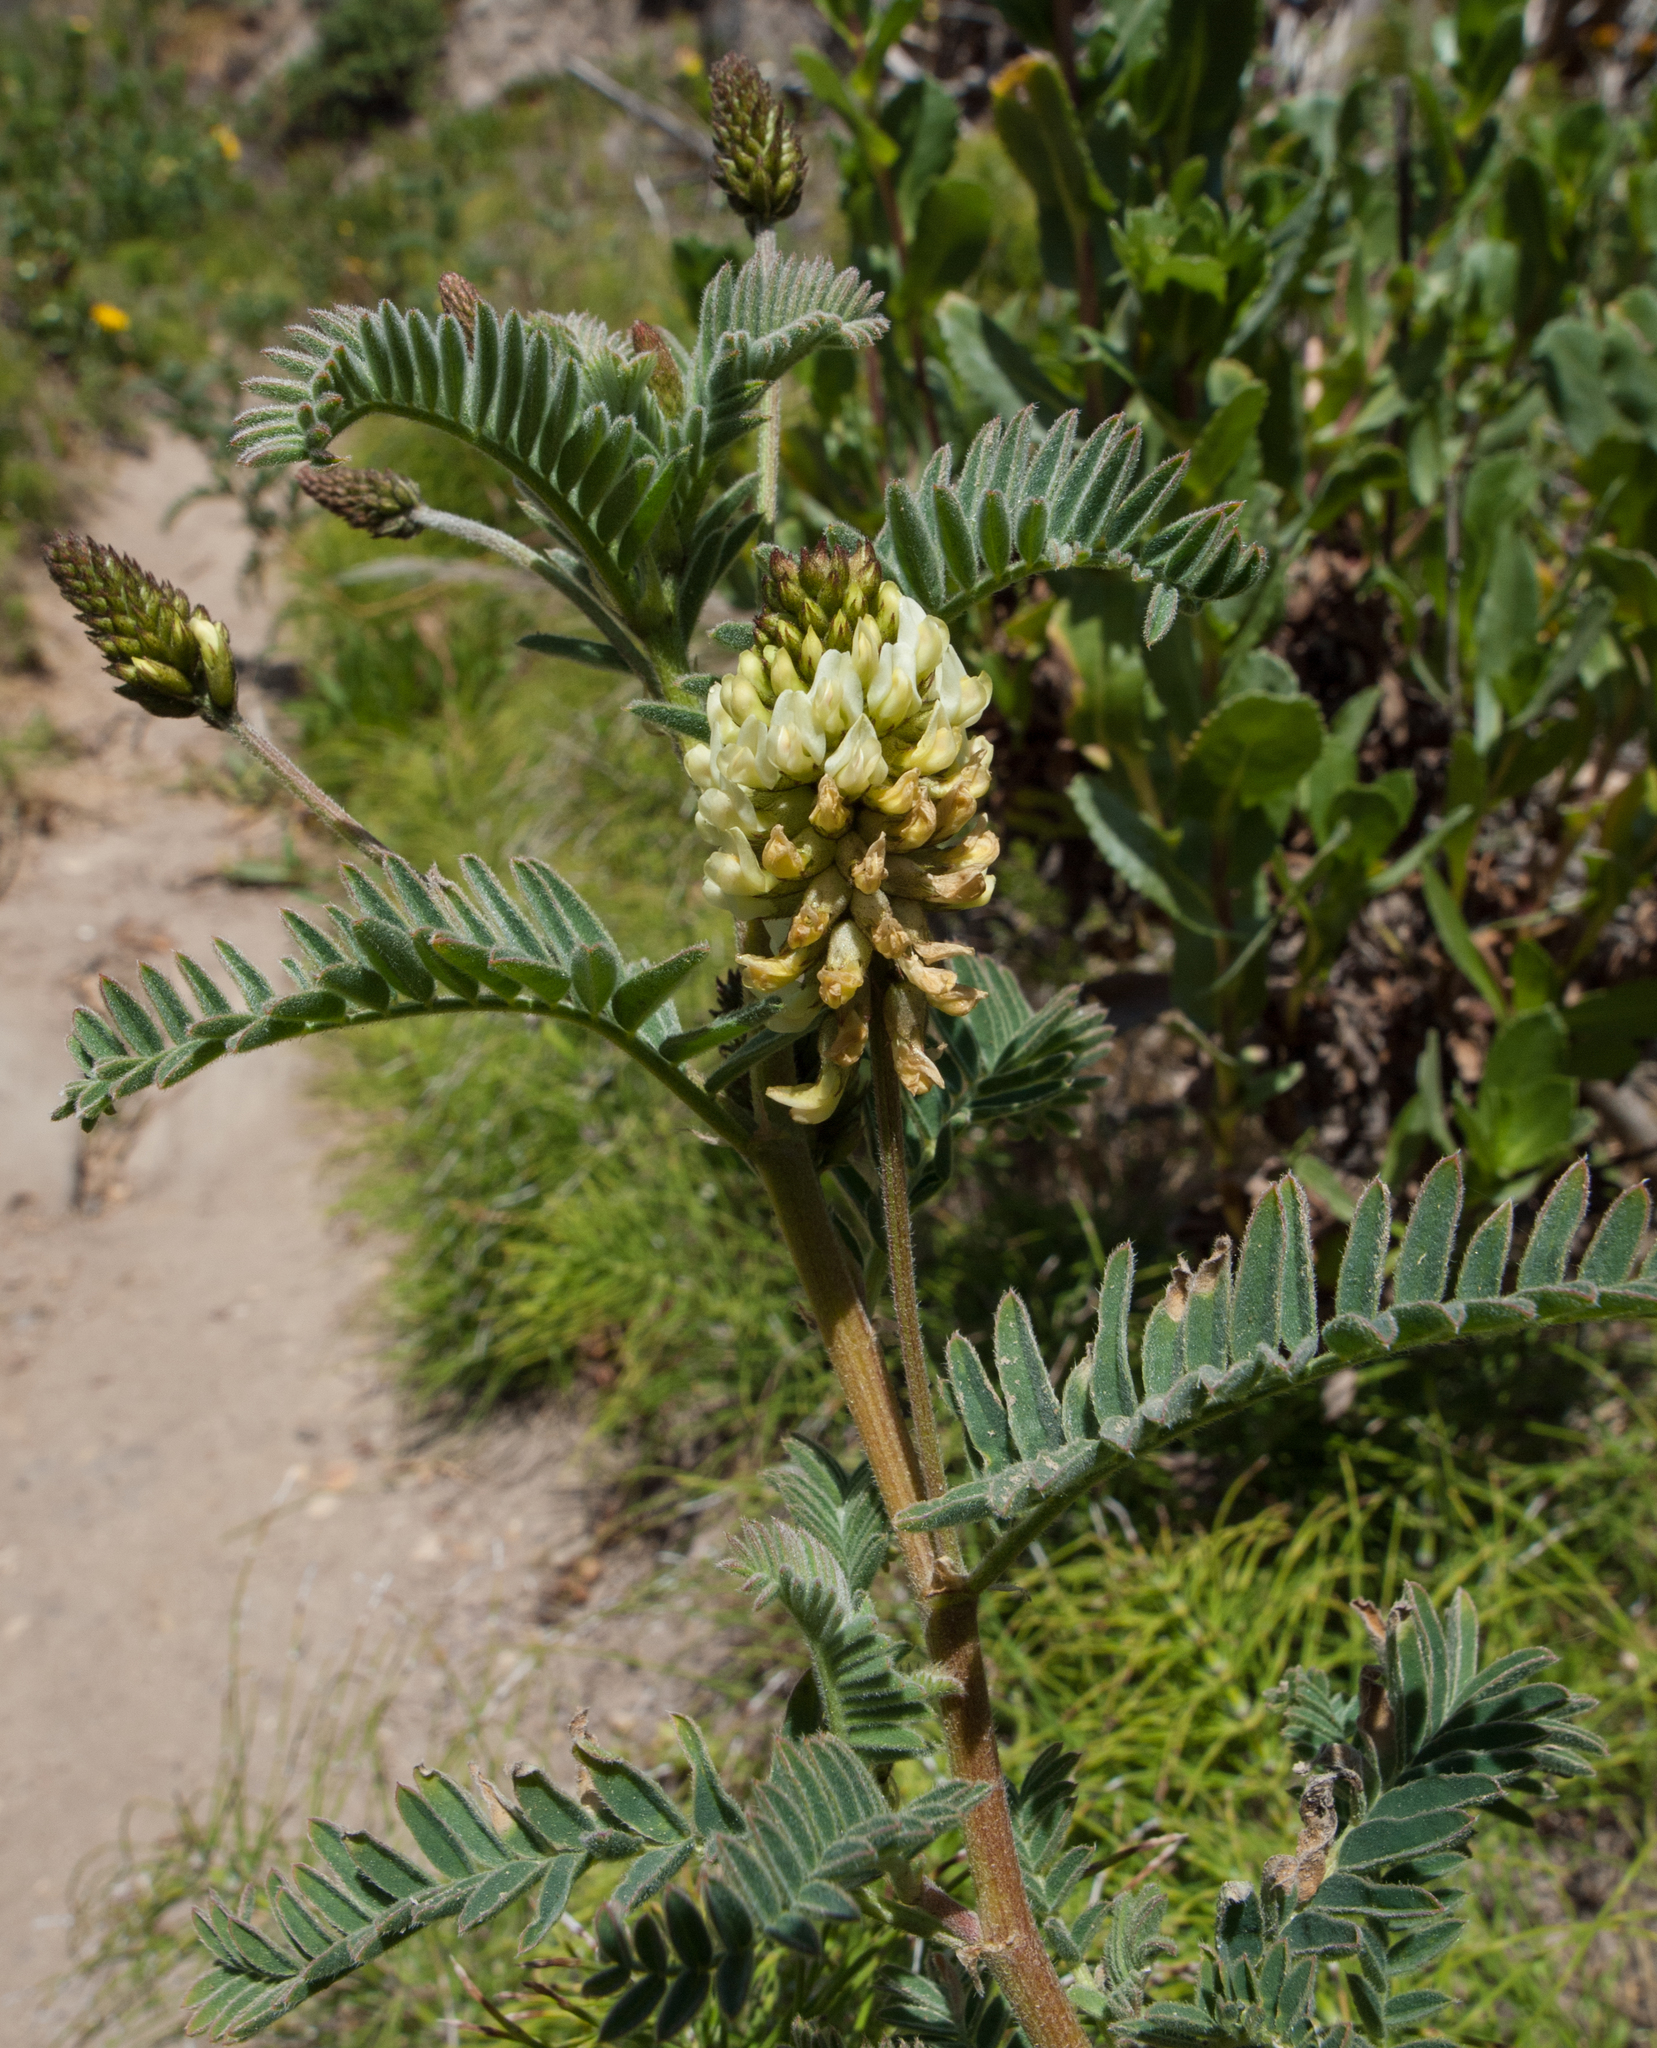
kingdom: Plantae
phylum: Tracheophyta
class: Magnoliopsida
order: Fabales
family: Fabaceae
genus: Astragalus
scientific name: Astragalus pycnostachyus
